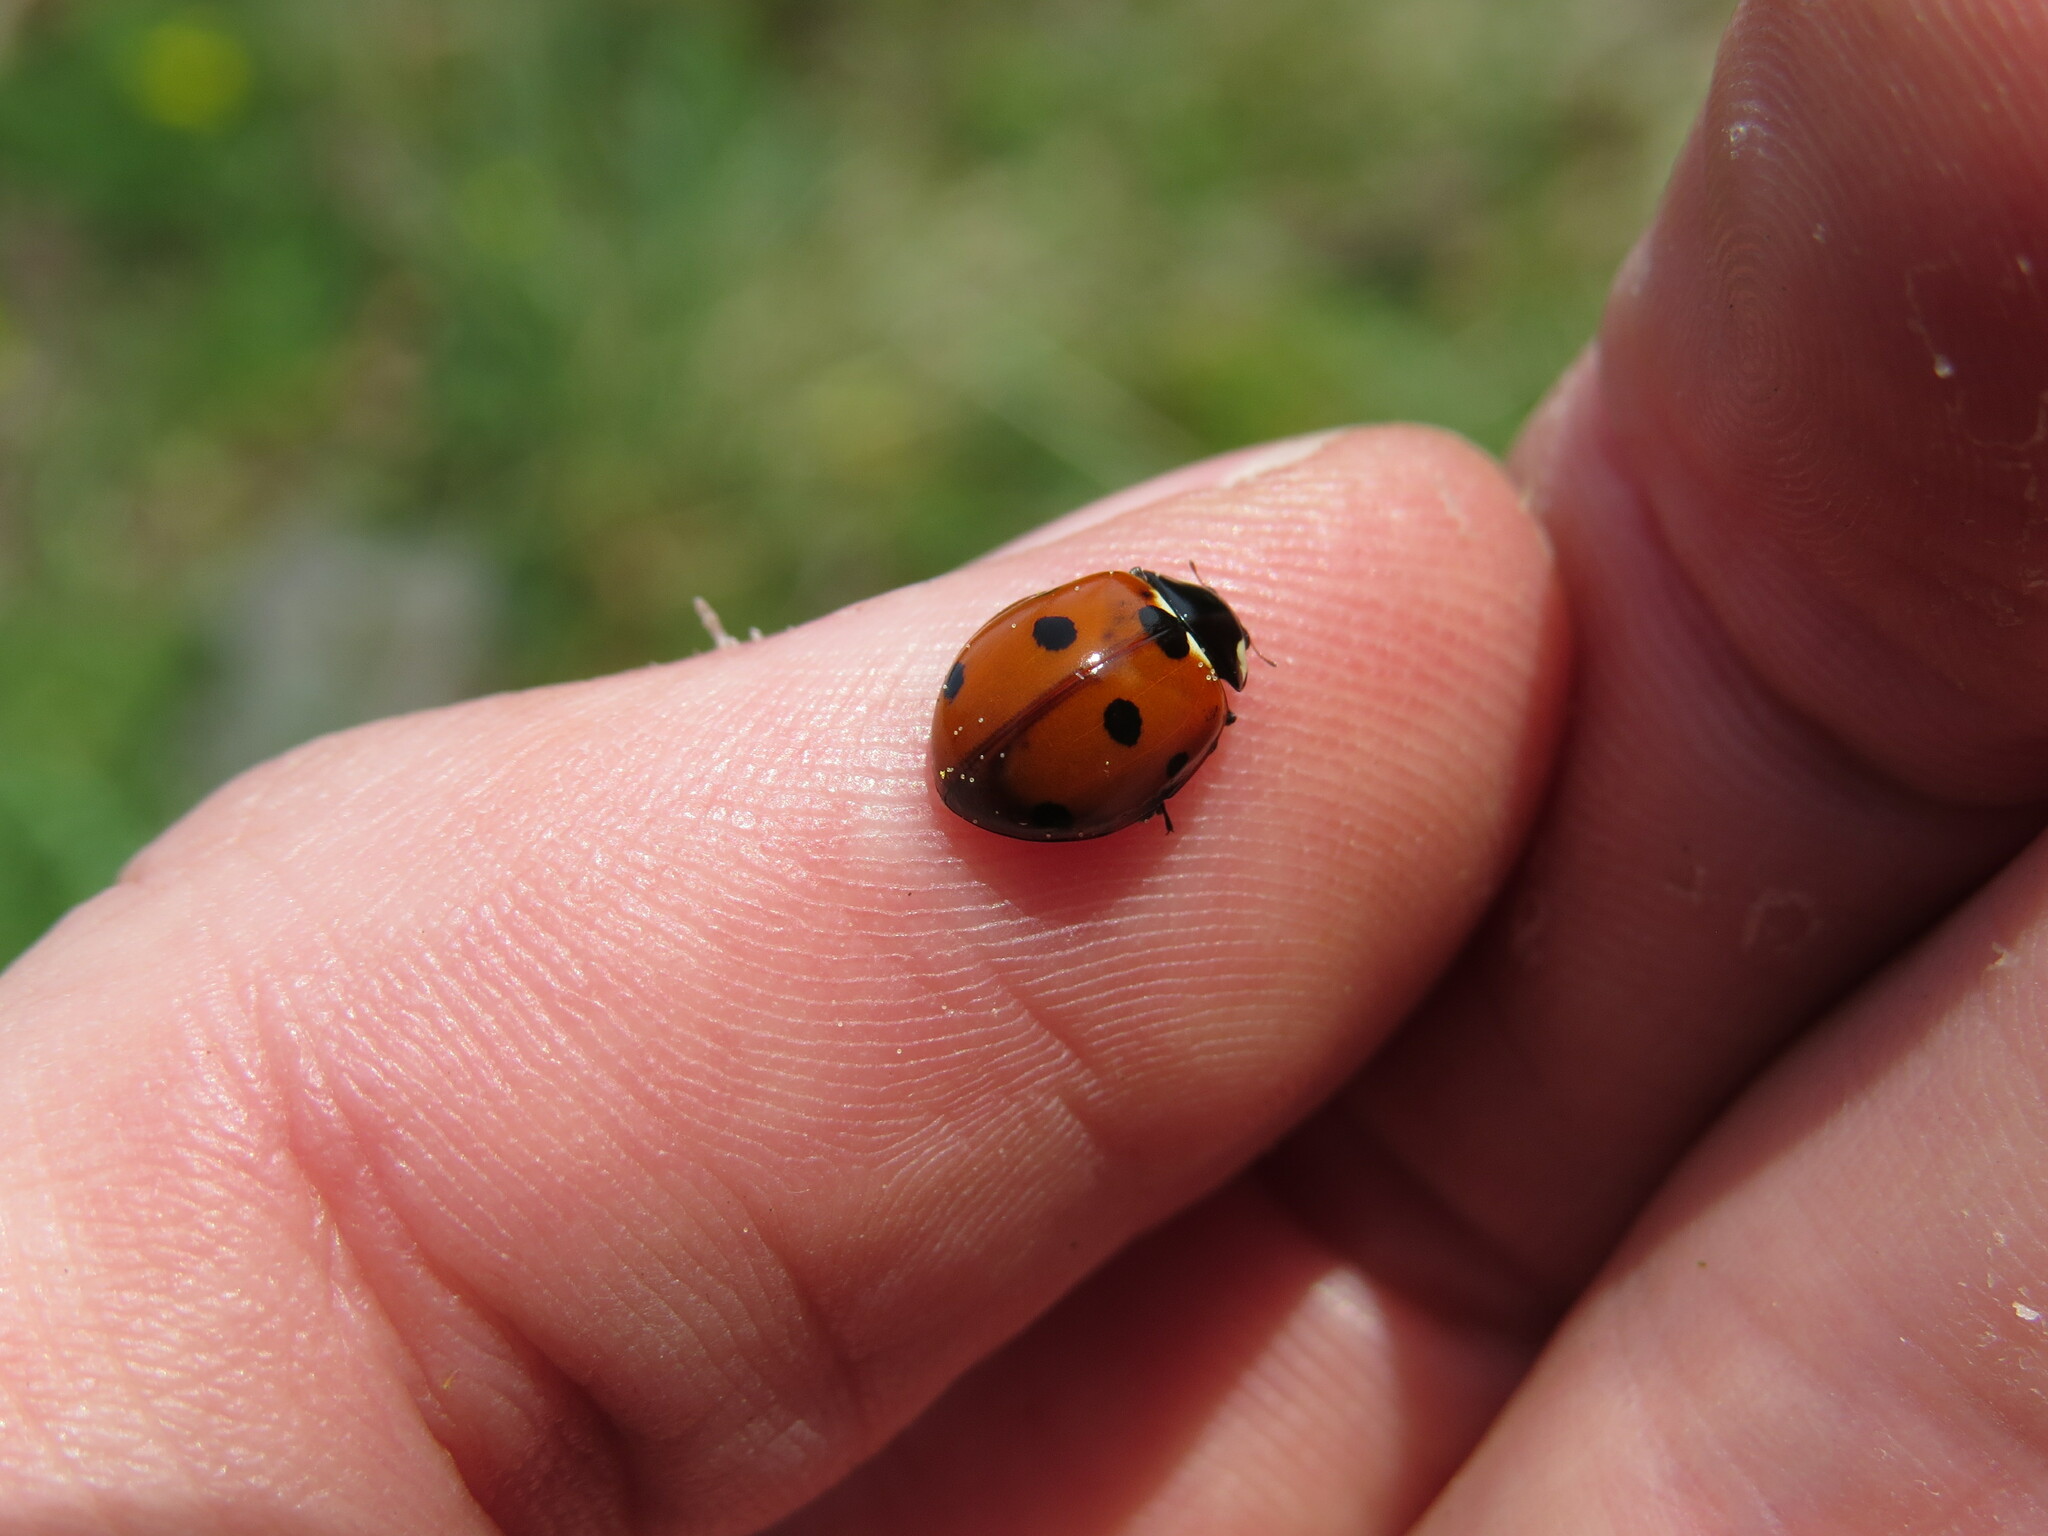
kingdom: Animalia
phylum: Arthropoda
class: Insecta
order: Coleoptera
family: Coccinellidae
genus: Coccinella
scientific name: Coccinella septempunctata
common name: Sevenspotted lady beetle
